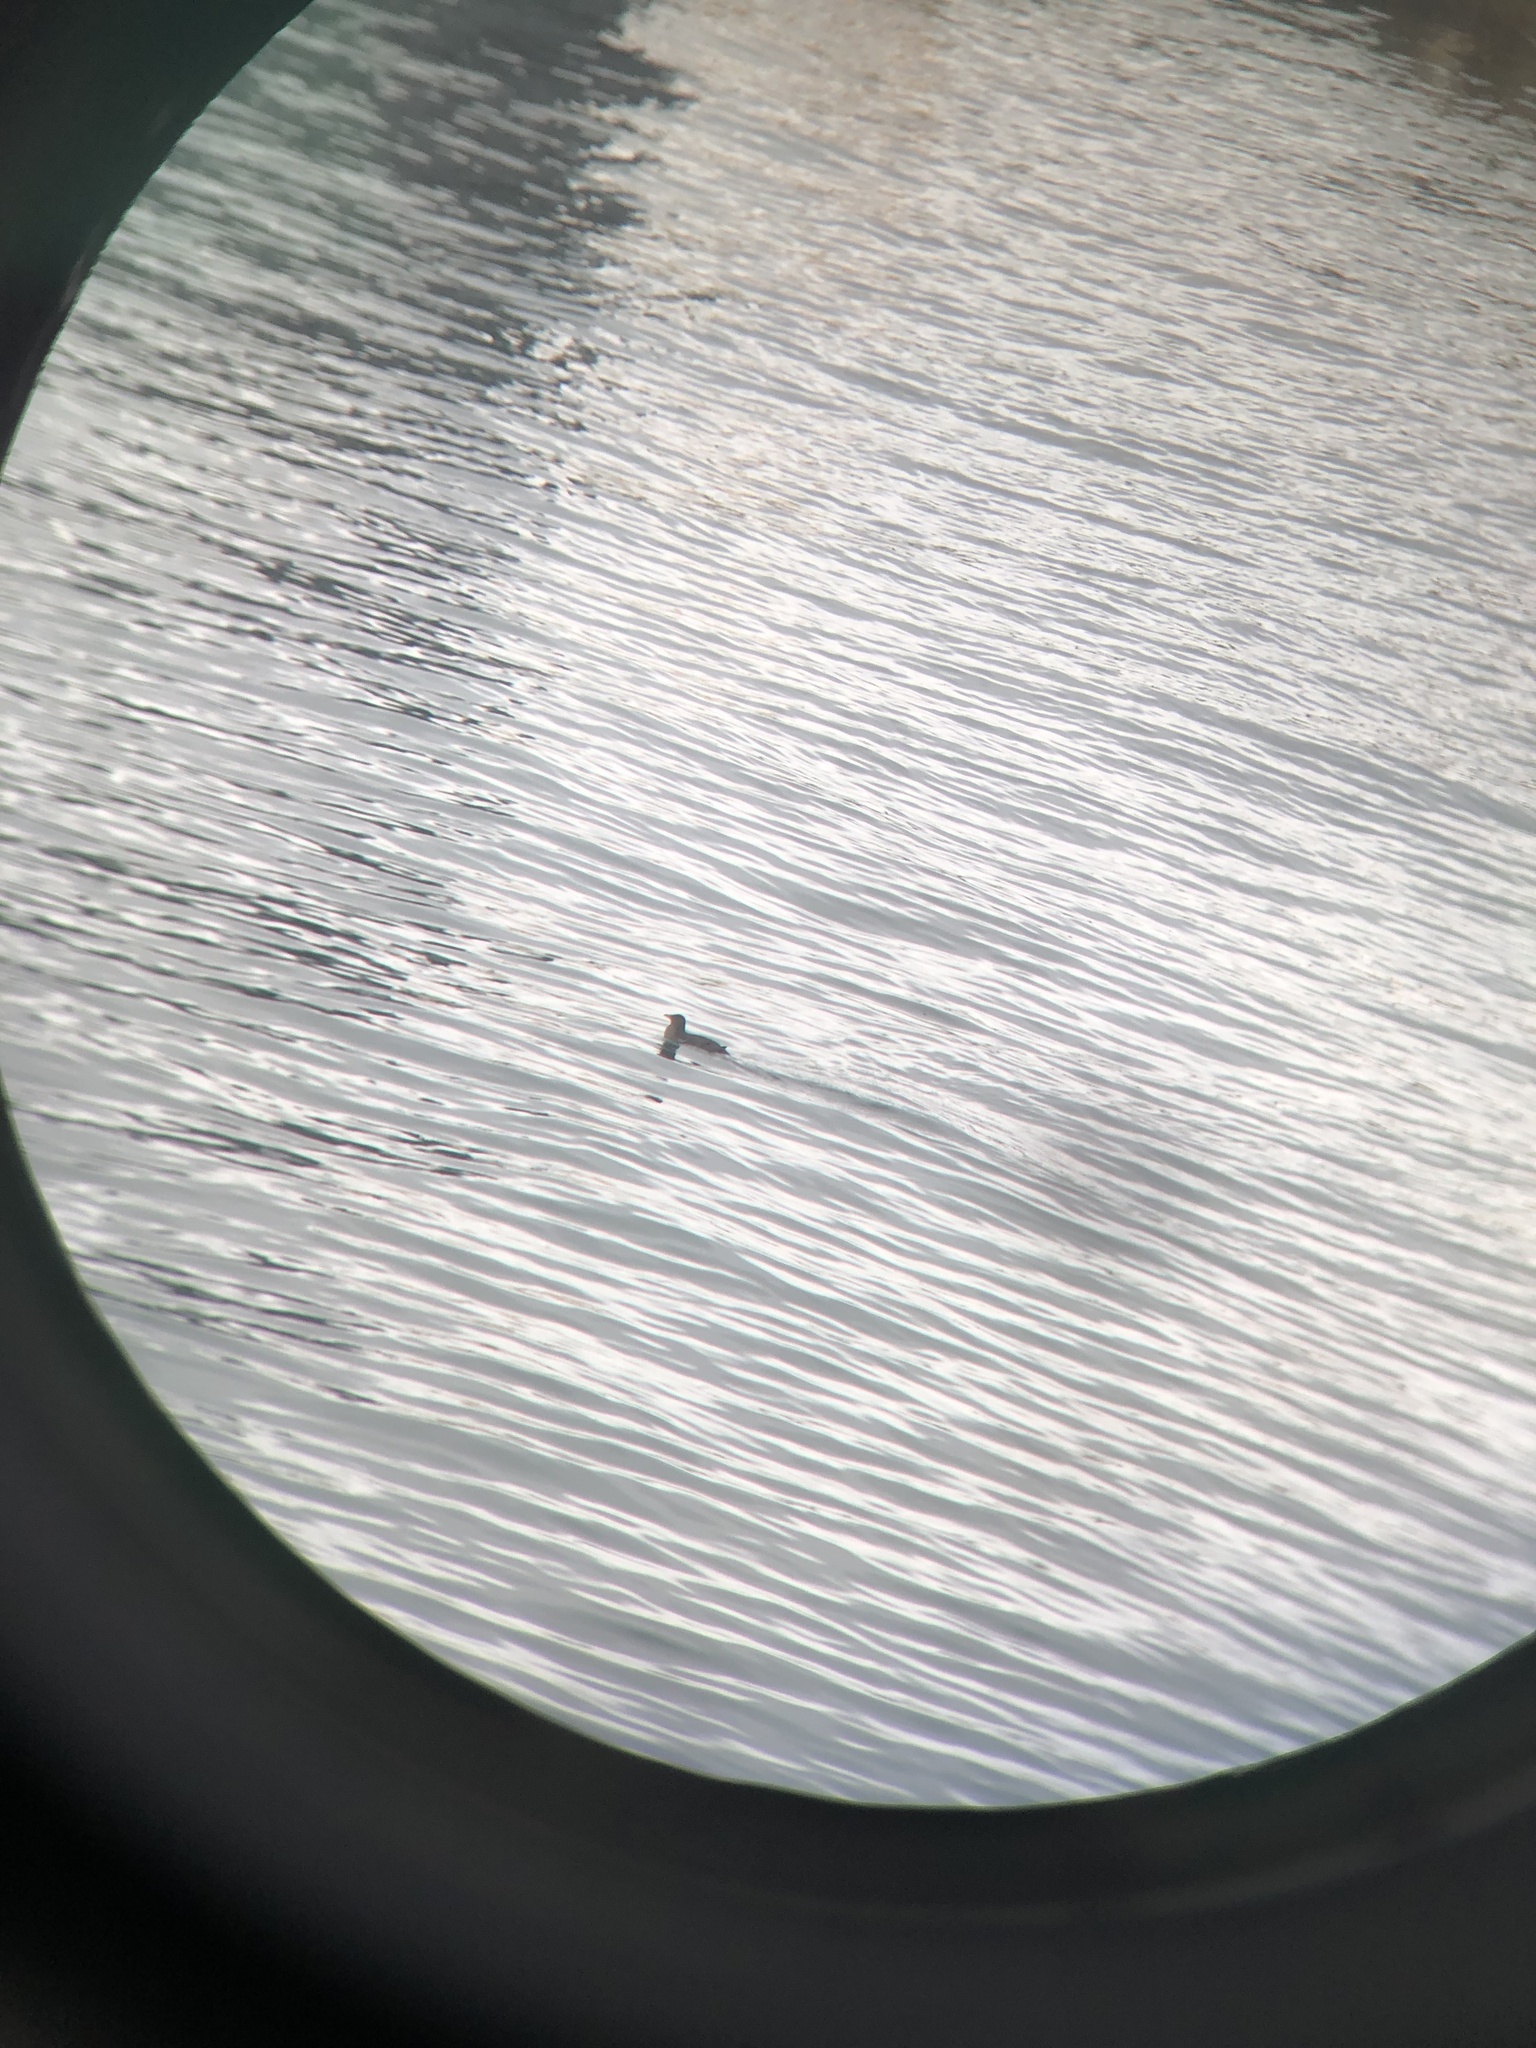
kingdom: Animalia
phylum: Chordata
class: Aves
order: Charadriiformes
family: Alcidae
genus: Cerorhinca
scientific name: Cerorhinca monocerata
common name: Rhinoceros auklet
